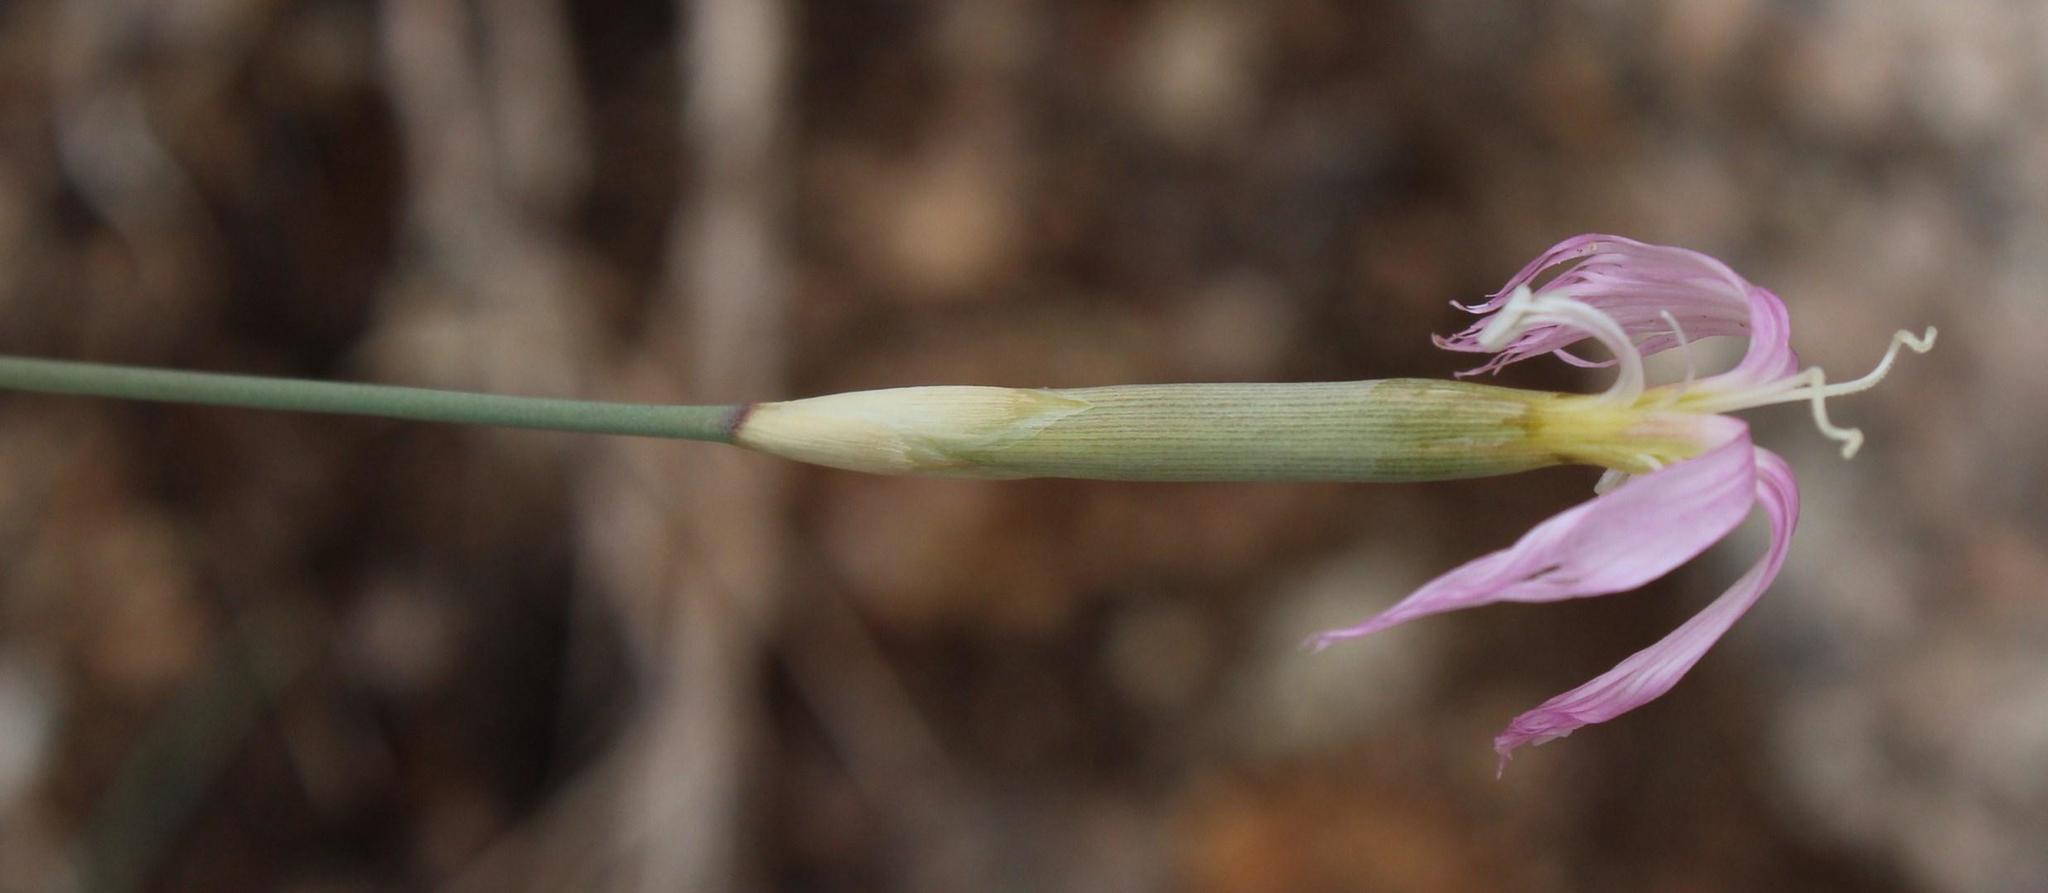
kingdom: Plantae
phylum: Tracheophyta
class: Magnoliopsida
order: Caryophyllales
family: Caryophyllaceae
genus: Dianthus
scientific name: Dianthus namaensis
